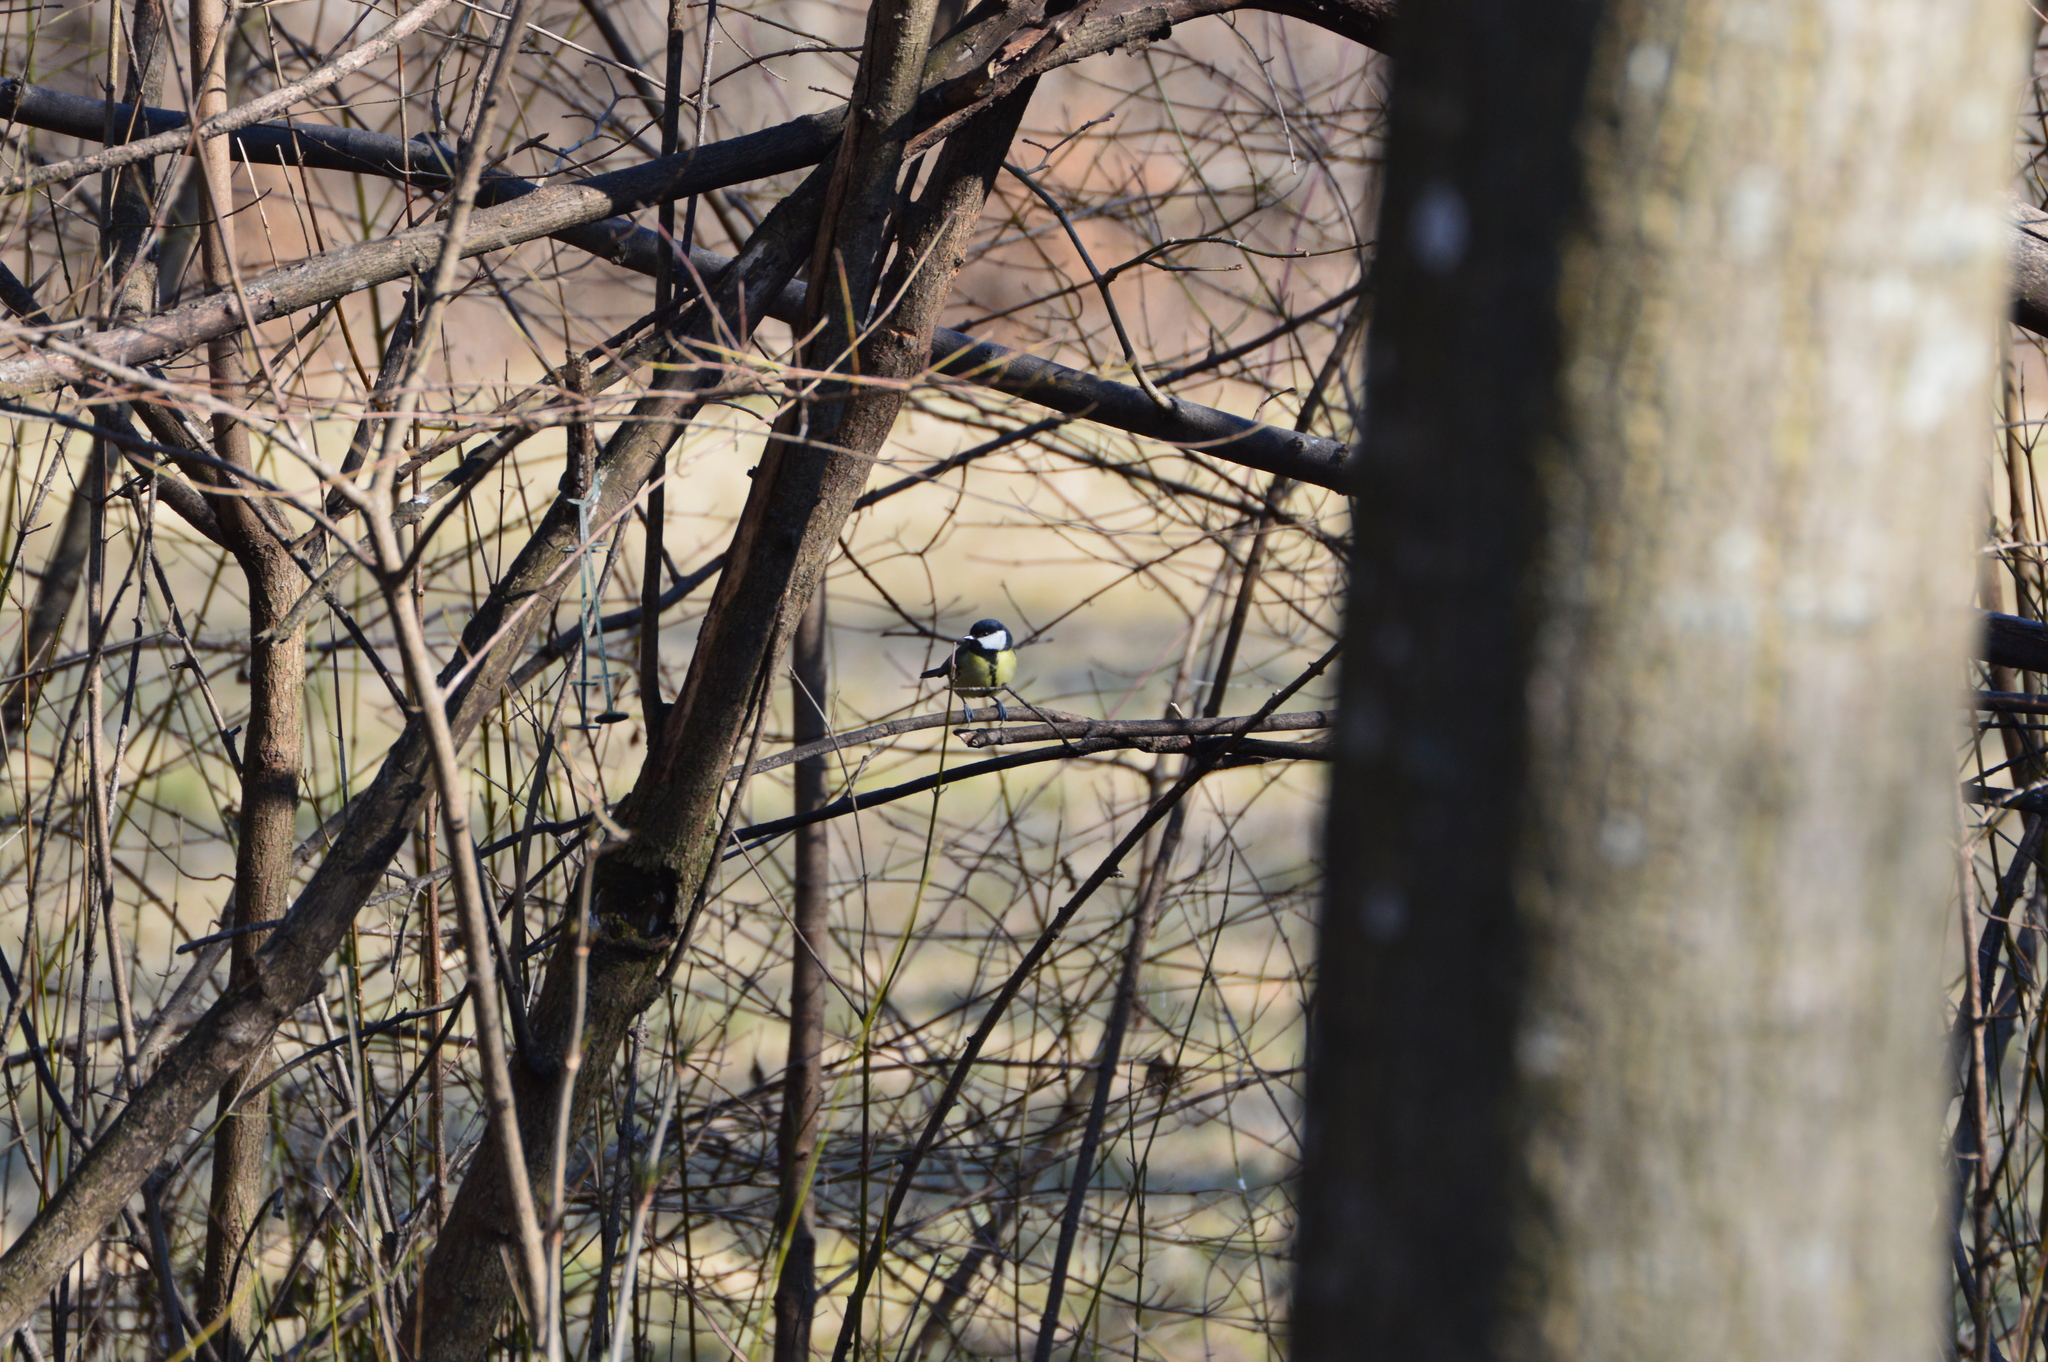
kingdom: Animalia
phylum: Chordata
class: Aves
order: Passeriformes
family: Paridae
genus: Parus
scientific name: Parus major
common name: Great tit
